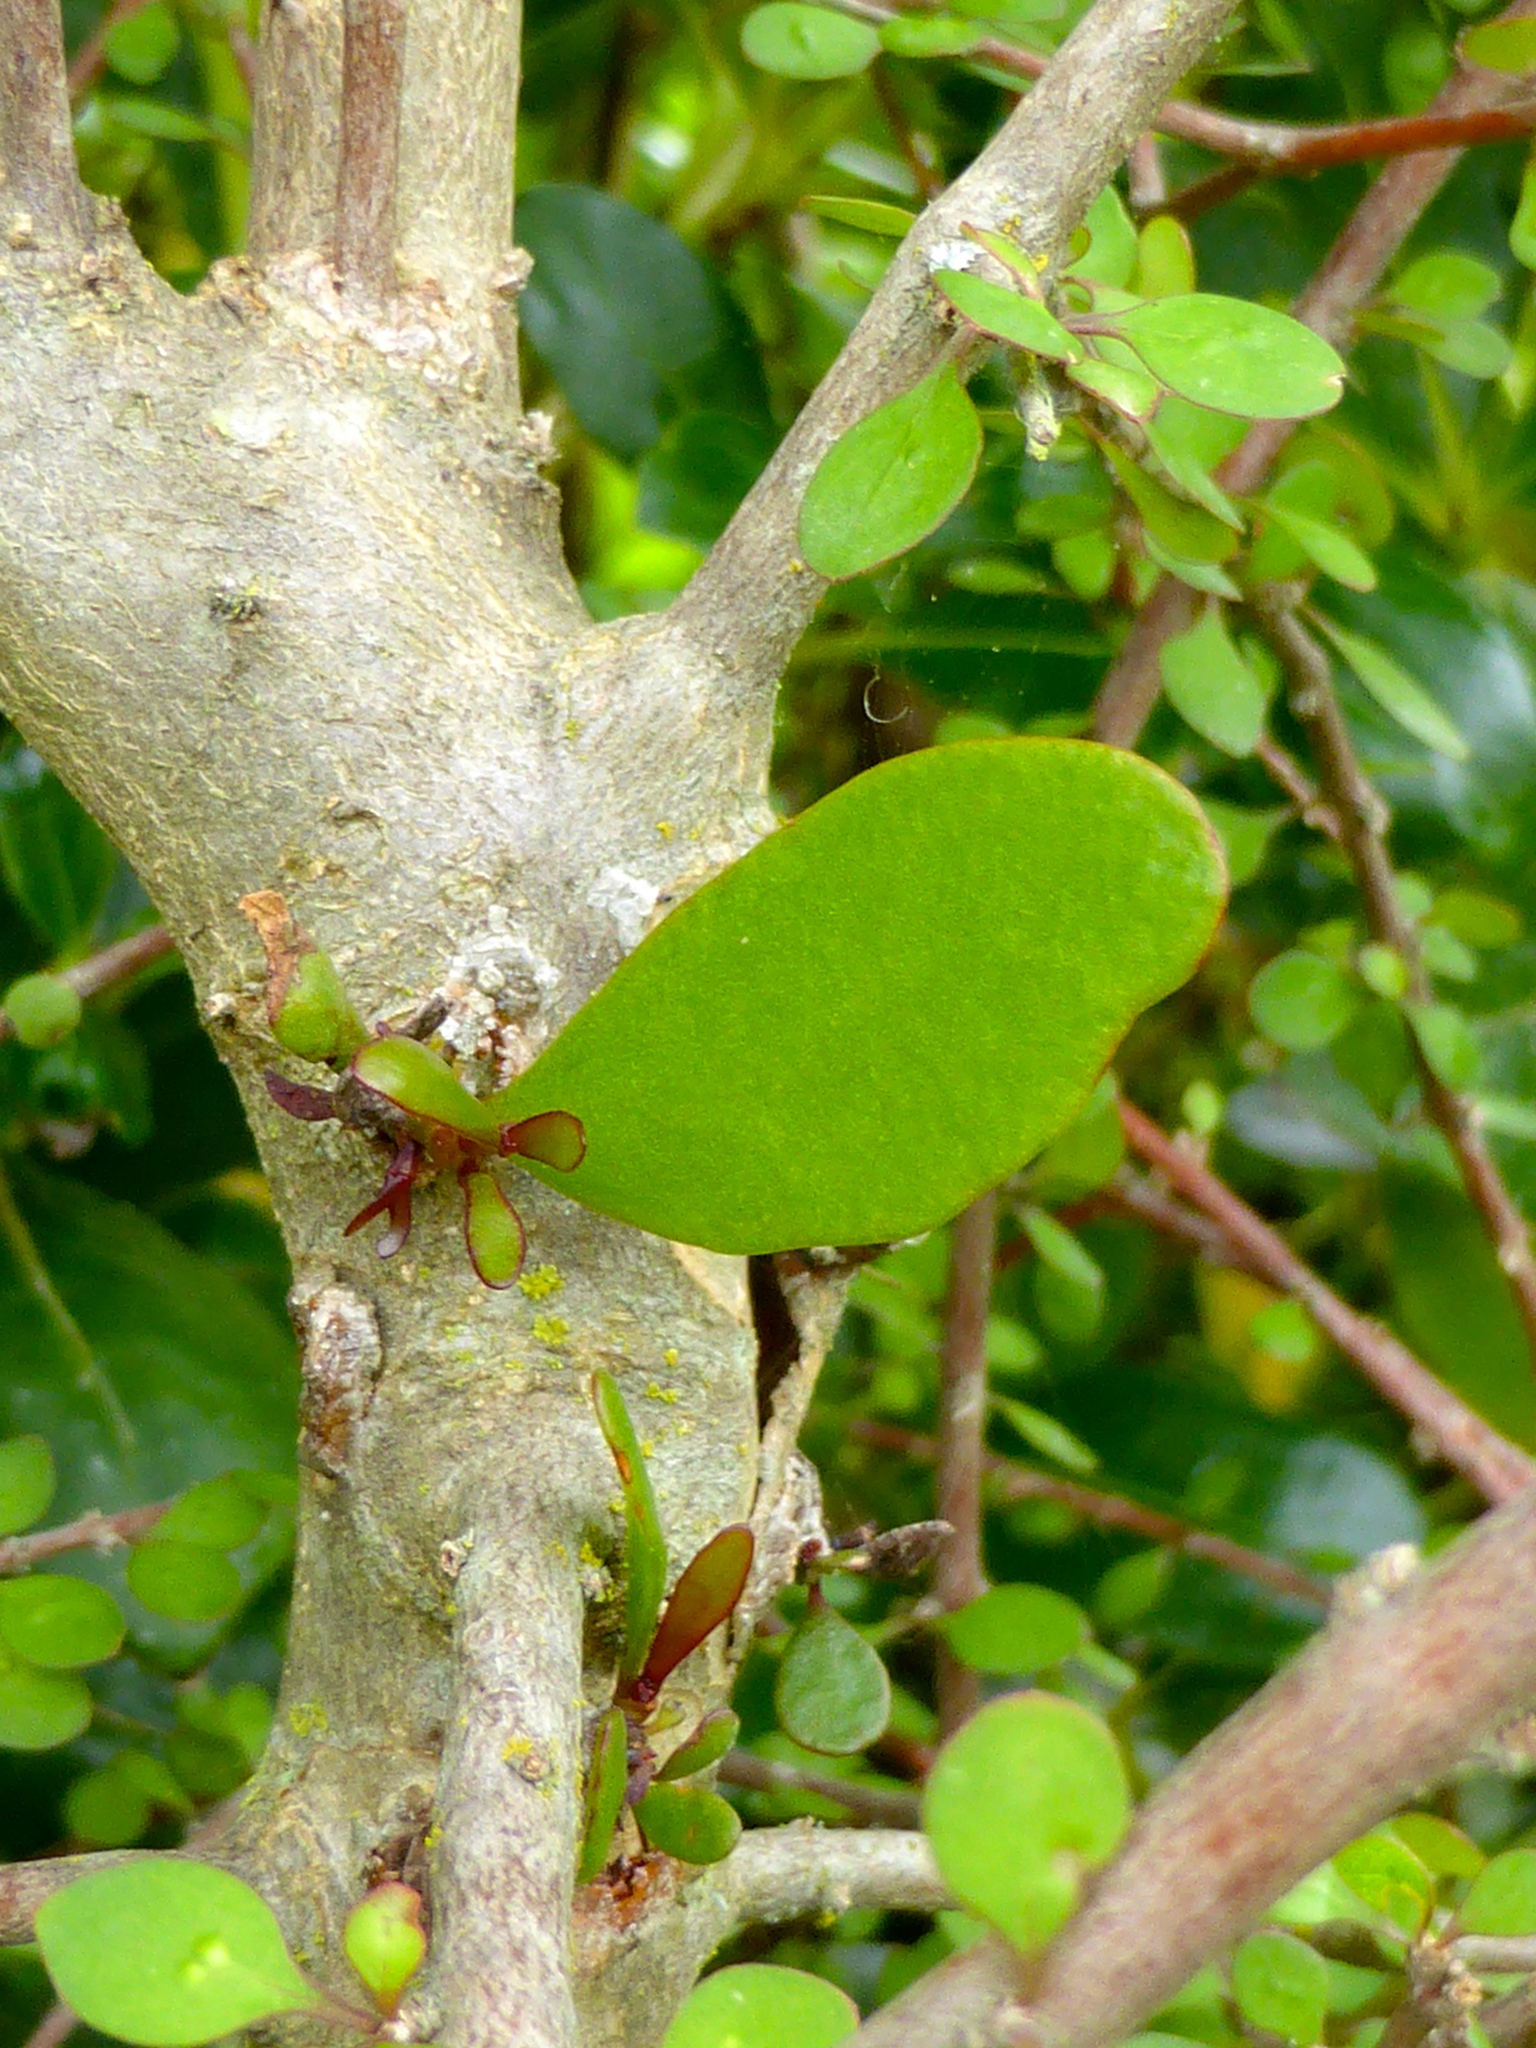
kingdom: Plantae
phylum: Tracheophyta
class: Magnoliopsida
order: Santalales
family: Loranthaceae
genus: Ileostylus
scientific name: Ileostylus micranthus
